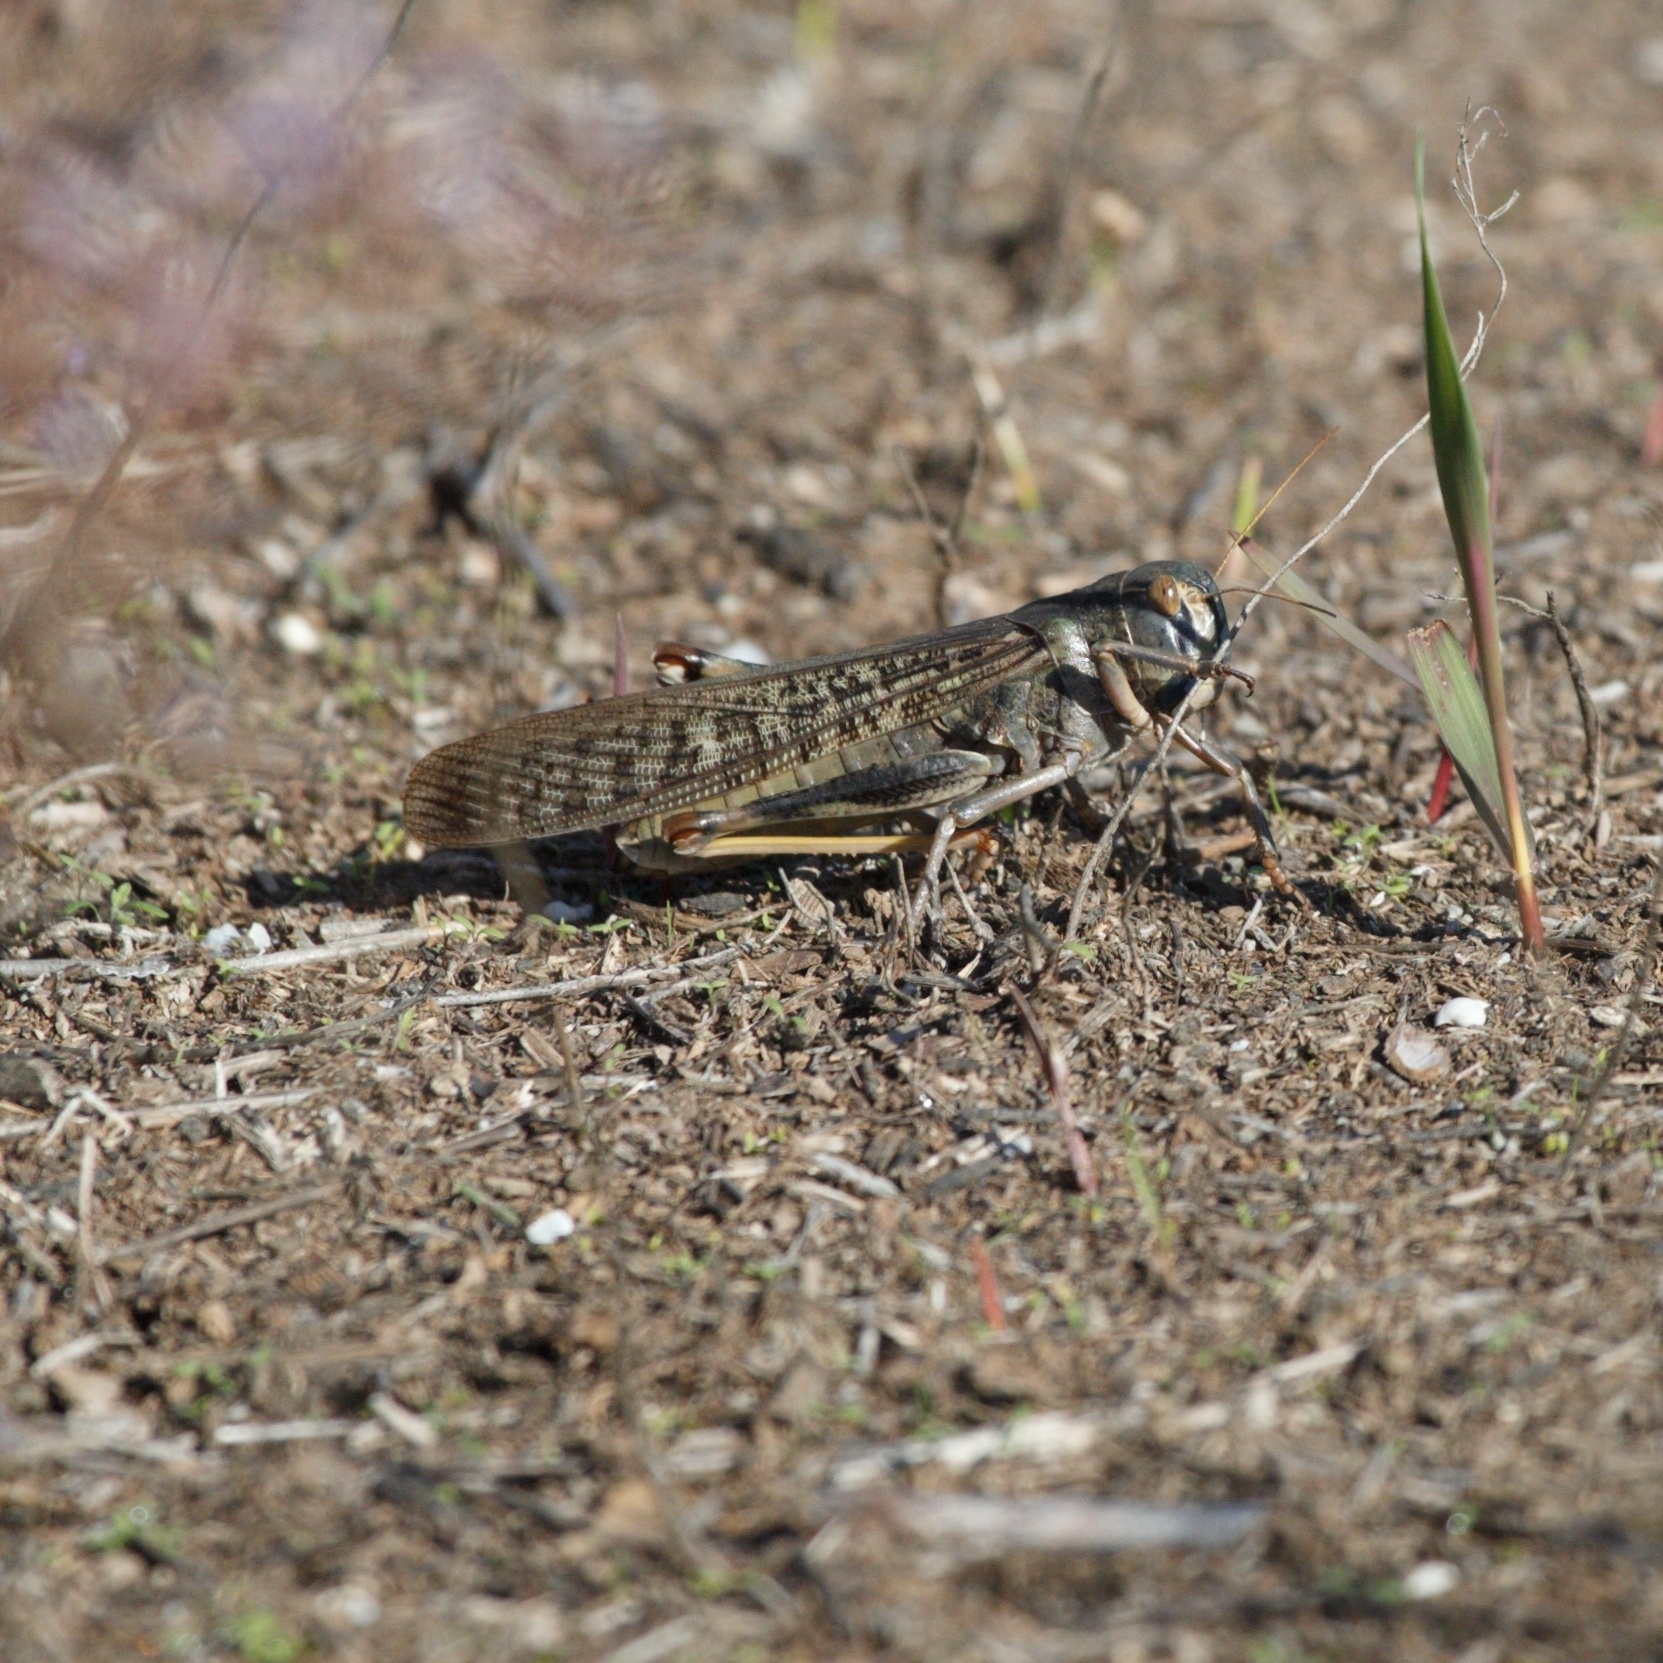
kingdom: Animalia
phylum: Arthropoda
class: Insecta
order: Orthoptera
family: Acrididae
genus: Locusta
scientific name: Locusta migratoria
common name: Migratory locust
